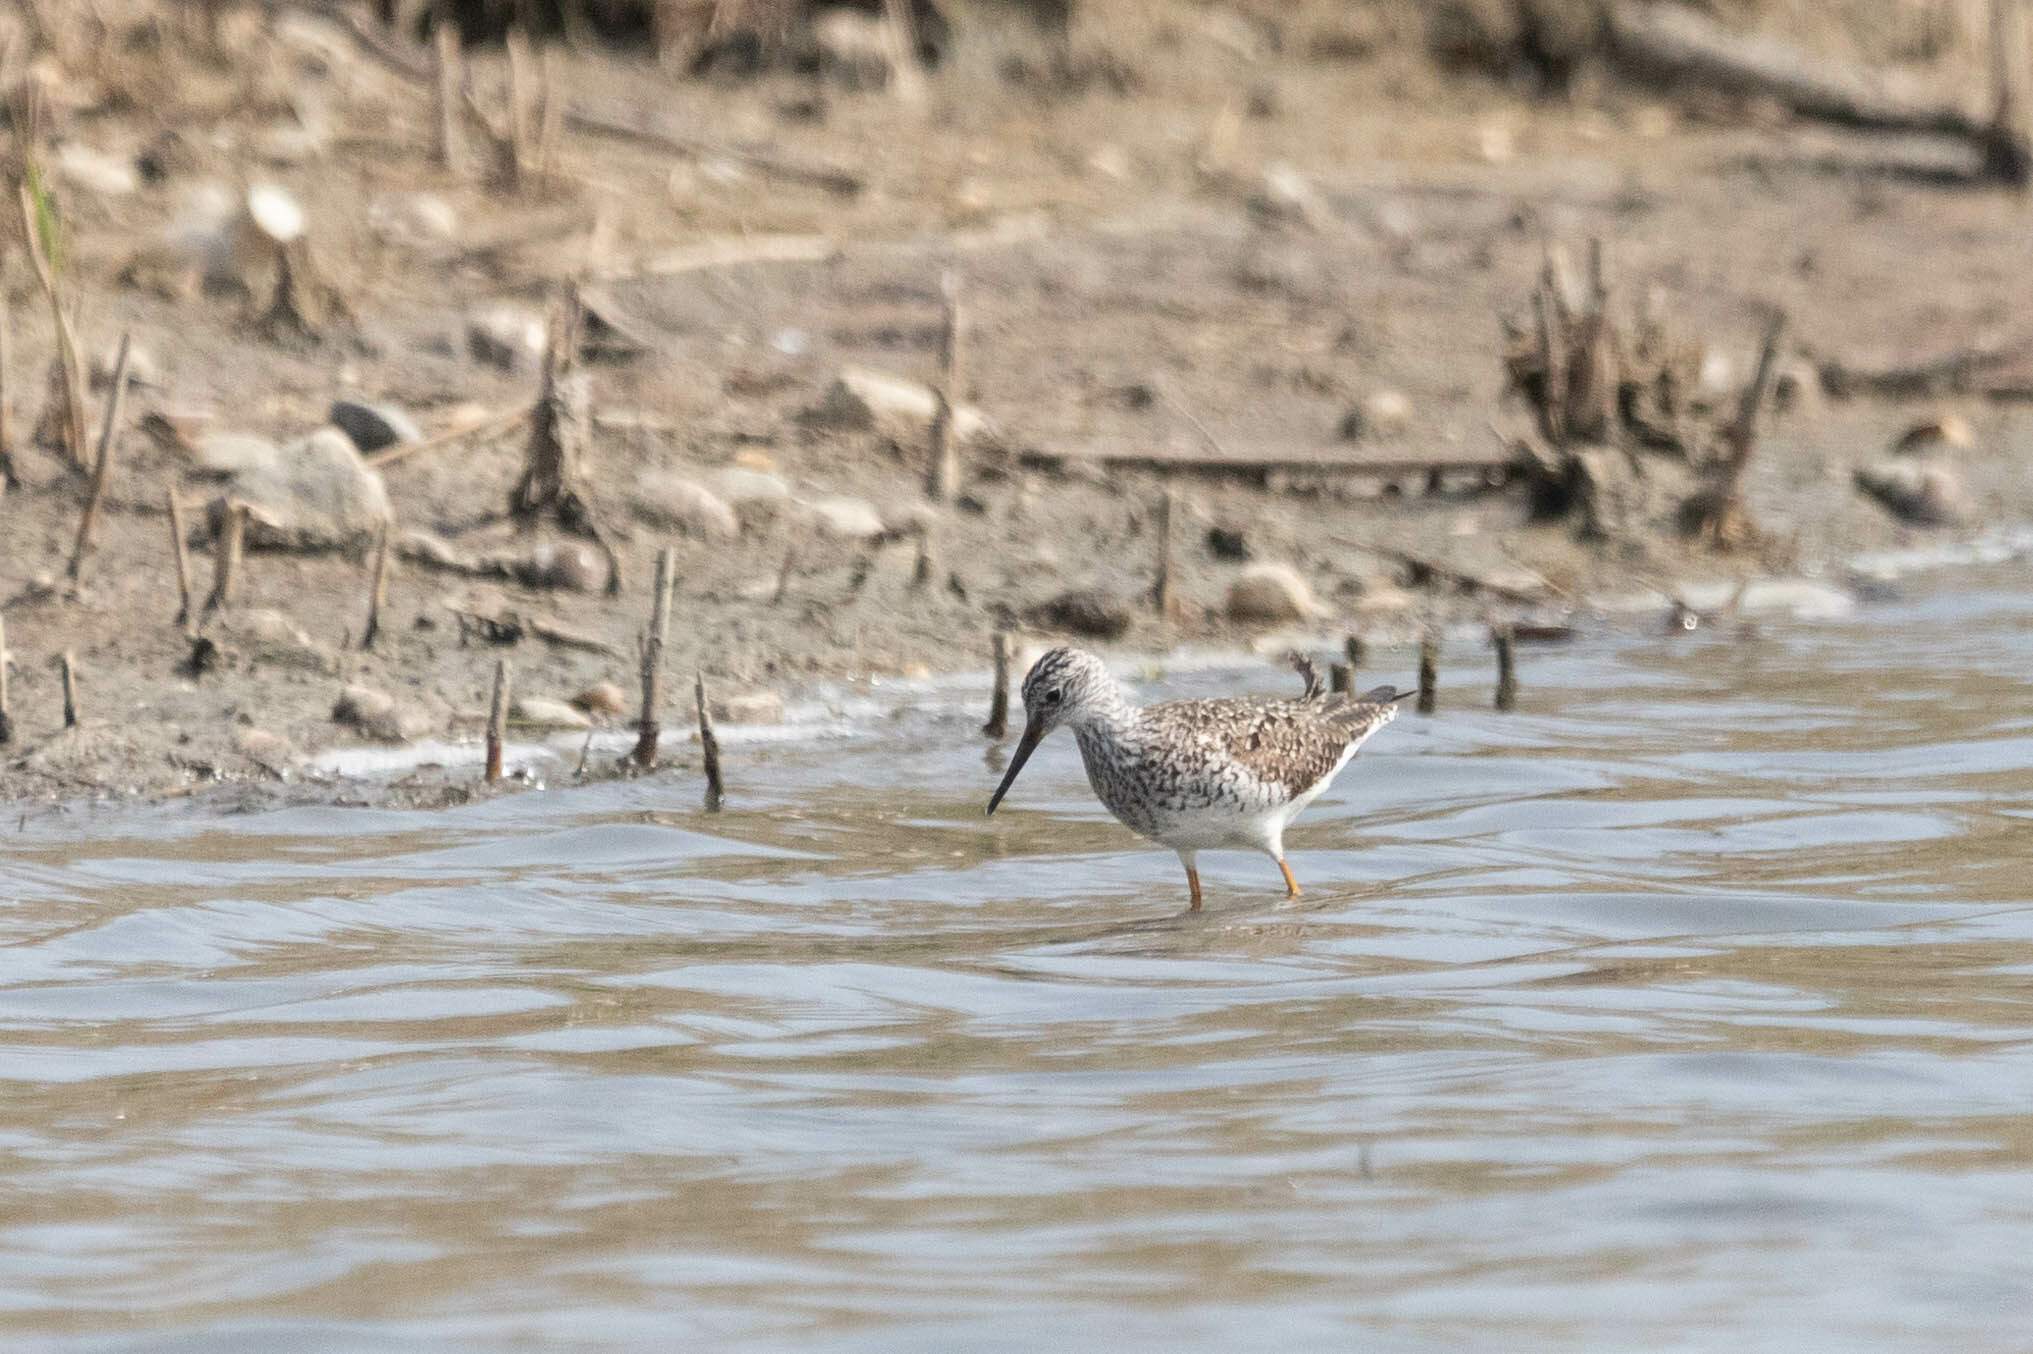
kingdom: Animalia
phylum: Chordata
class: Aves
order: Charadriiformes
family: Scolopacidae
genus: Tringa
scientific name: Tringa flavipes
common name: Lesser yellowlegs
